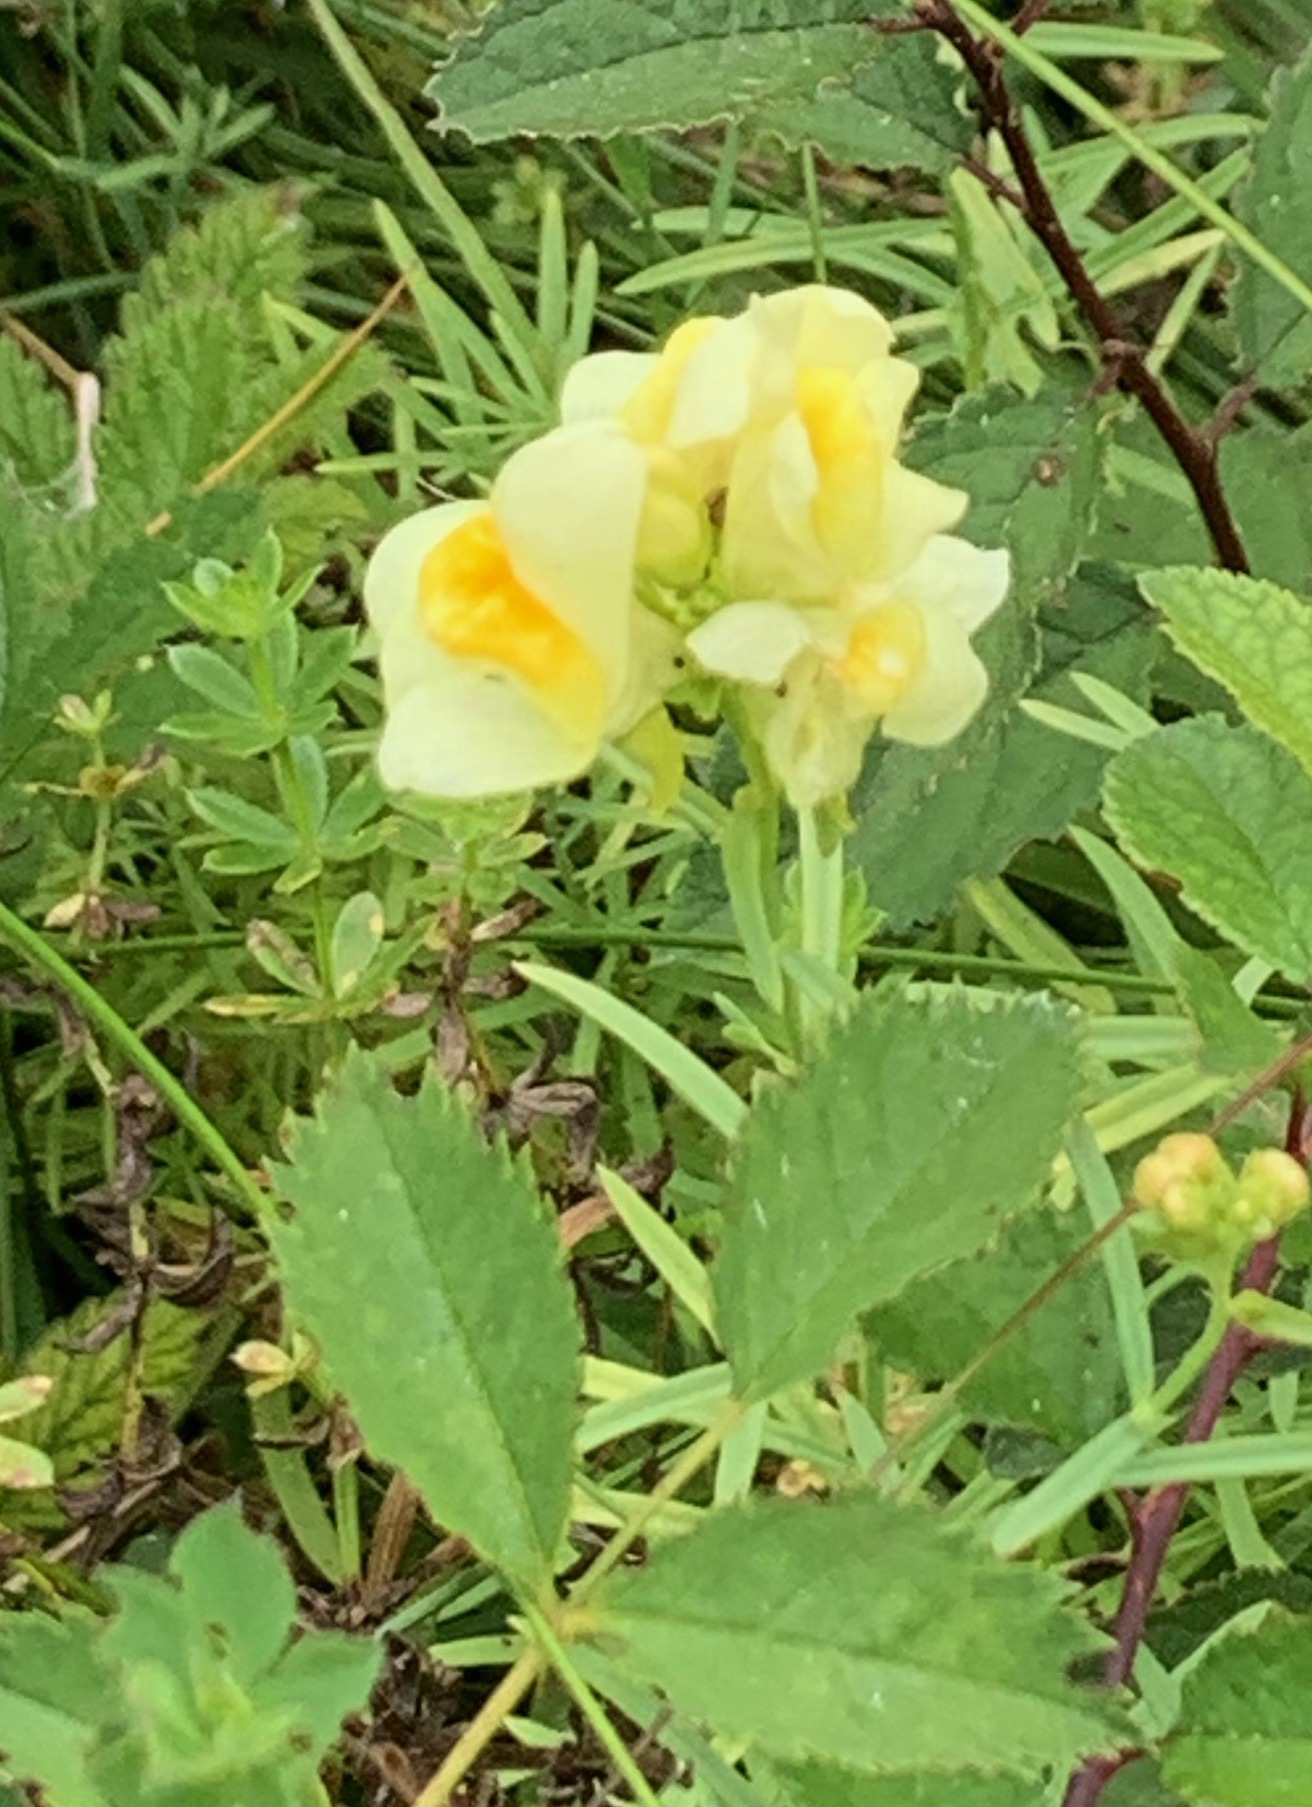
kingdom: Plantae
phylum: Tracheophyta
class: Magnoliopsida
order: Lamiales
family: Plantaginaceae
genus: Linaria
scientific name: Linaria vulgaris
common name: Butter and eggs
